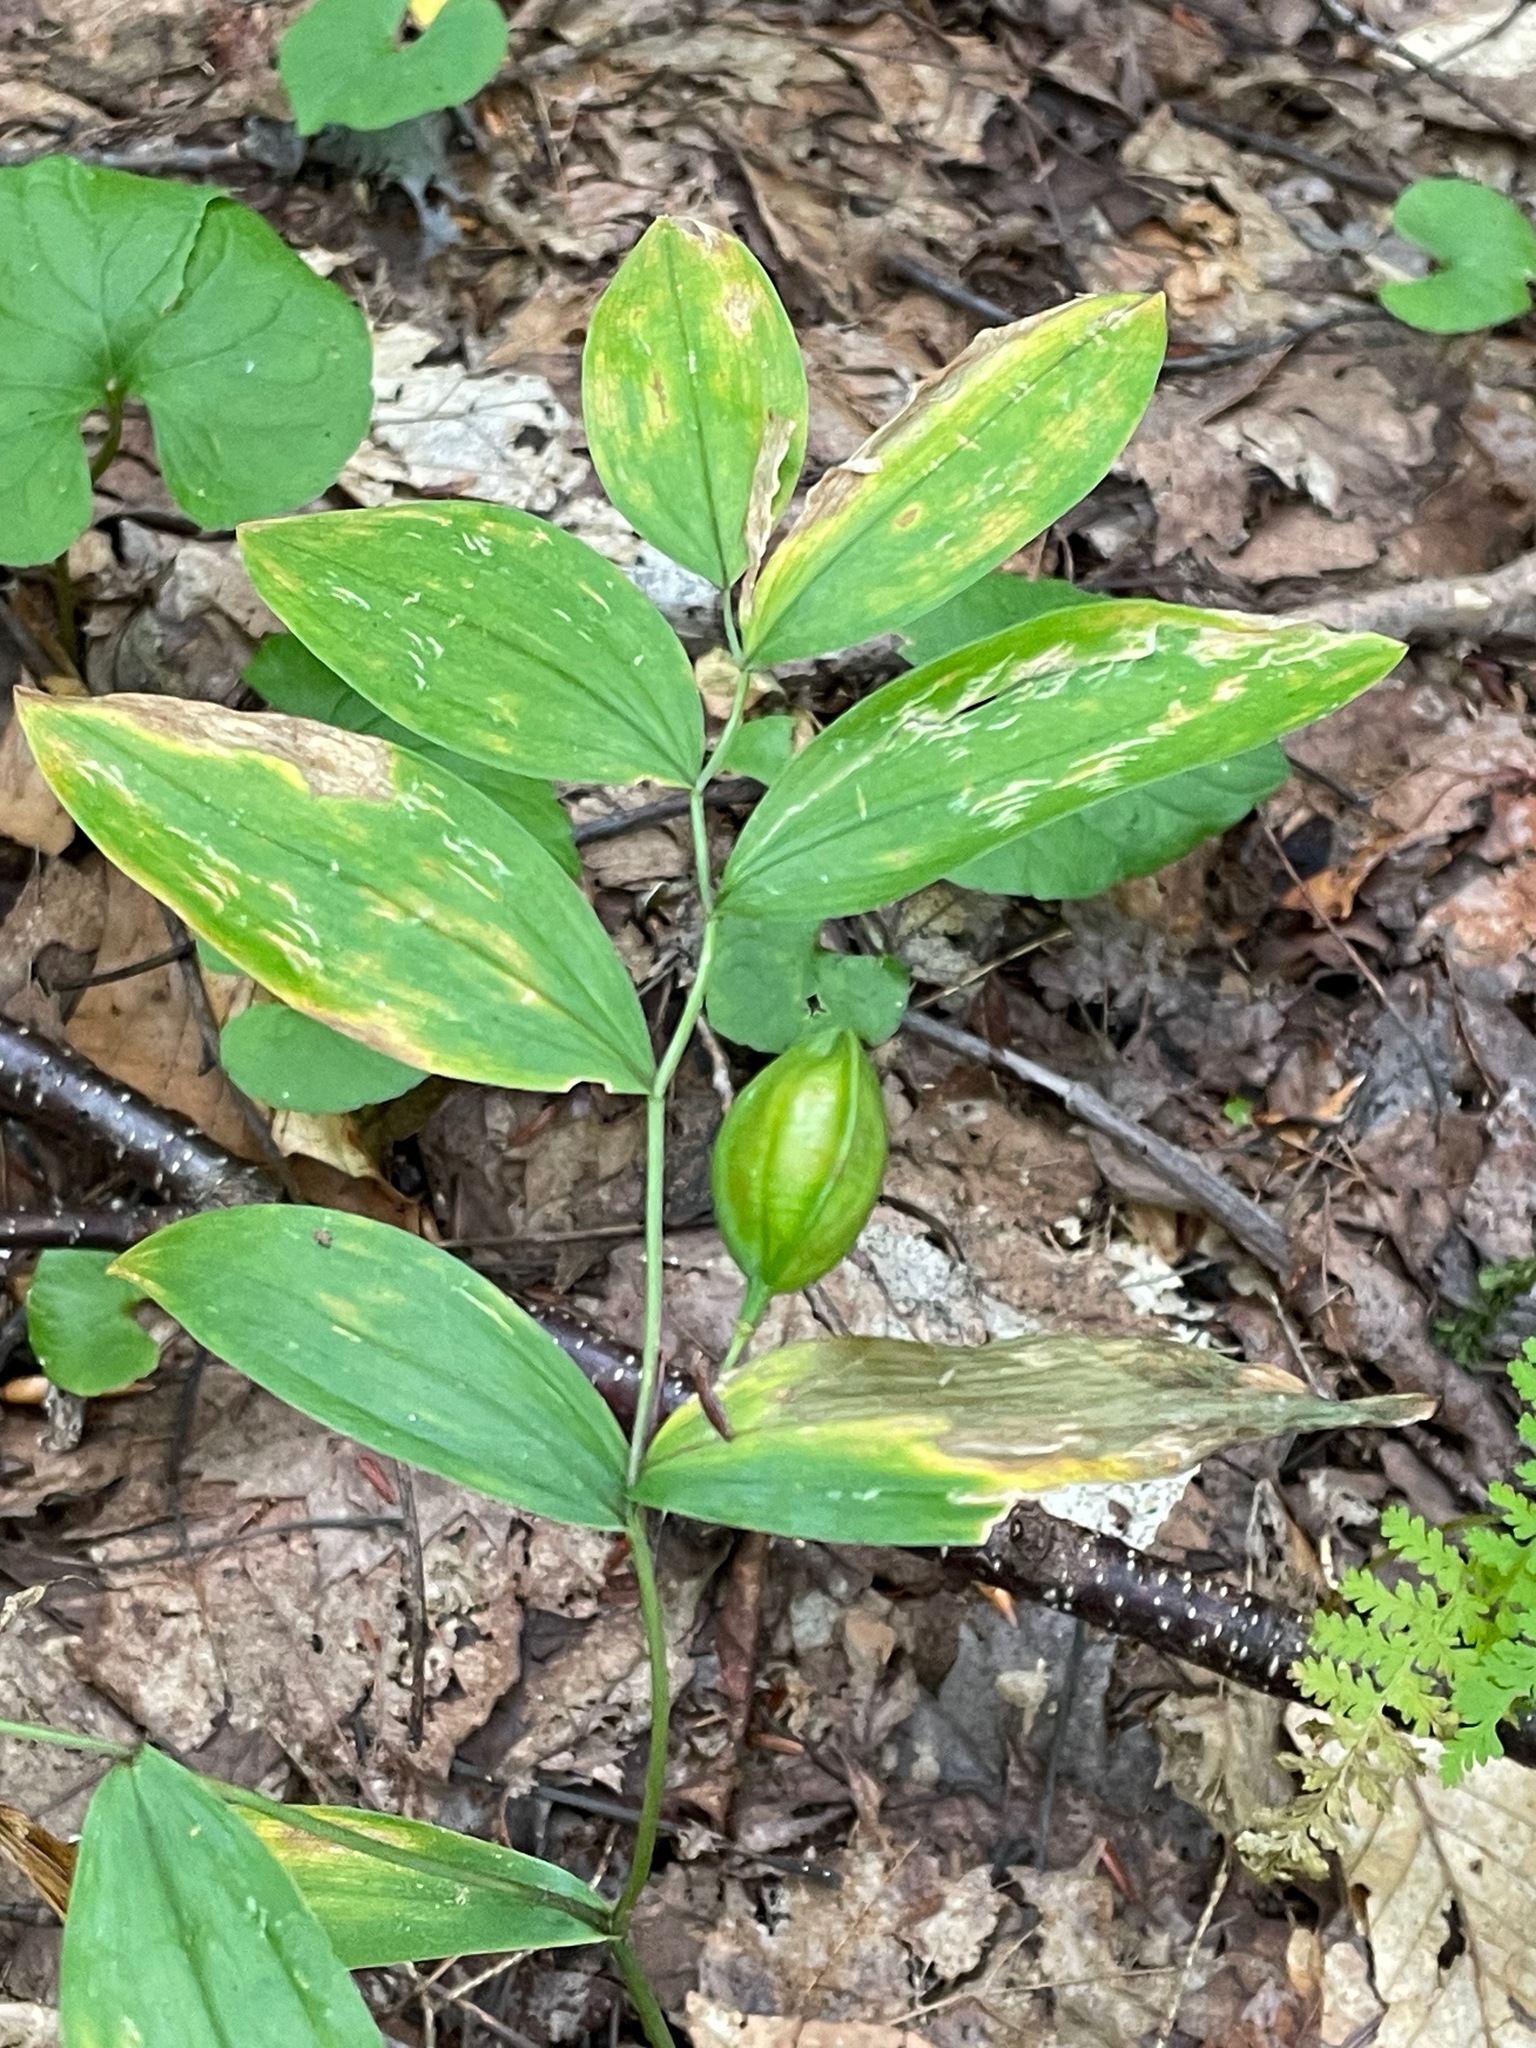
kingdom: Plantae
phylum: Tracheophyta
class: Liliopsida
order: Liliales
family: Colchicaceae
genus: Uvularia
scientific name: Uvularia sessilifolia
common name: Straw-lily
